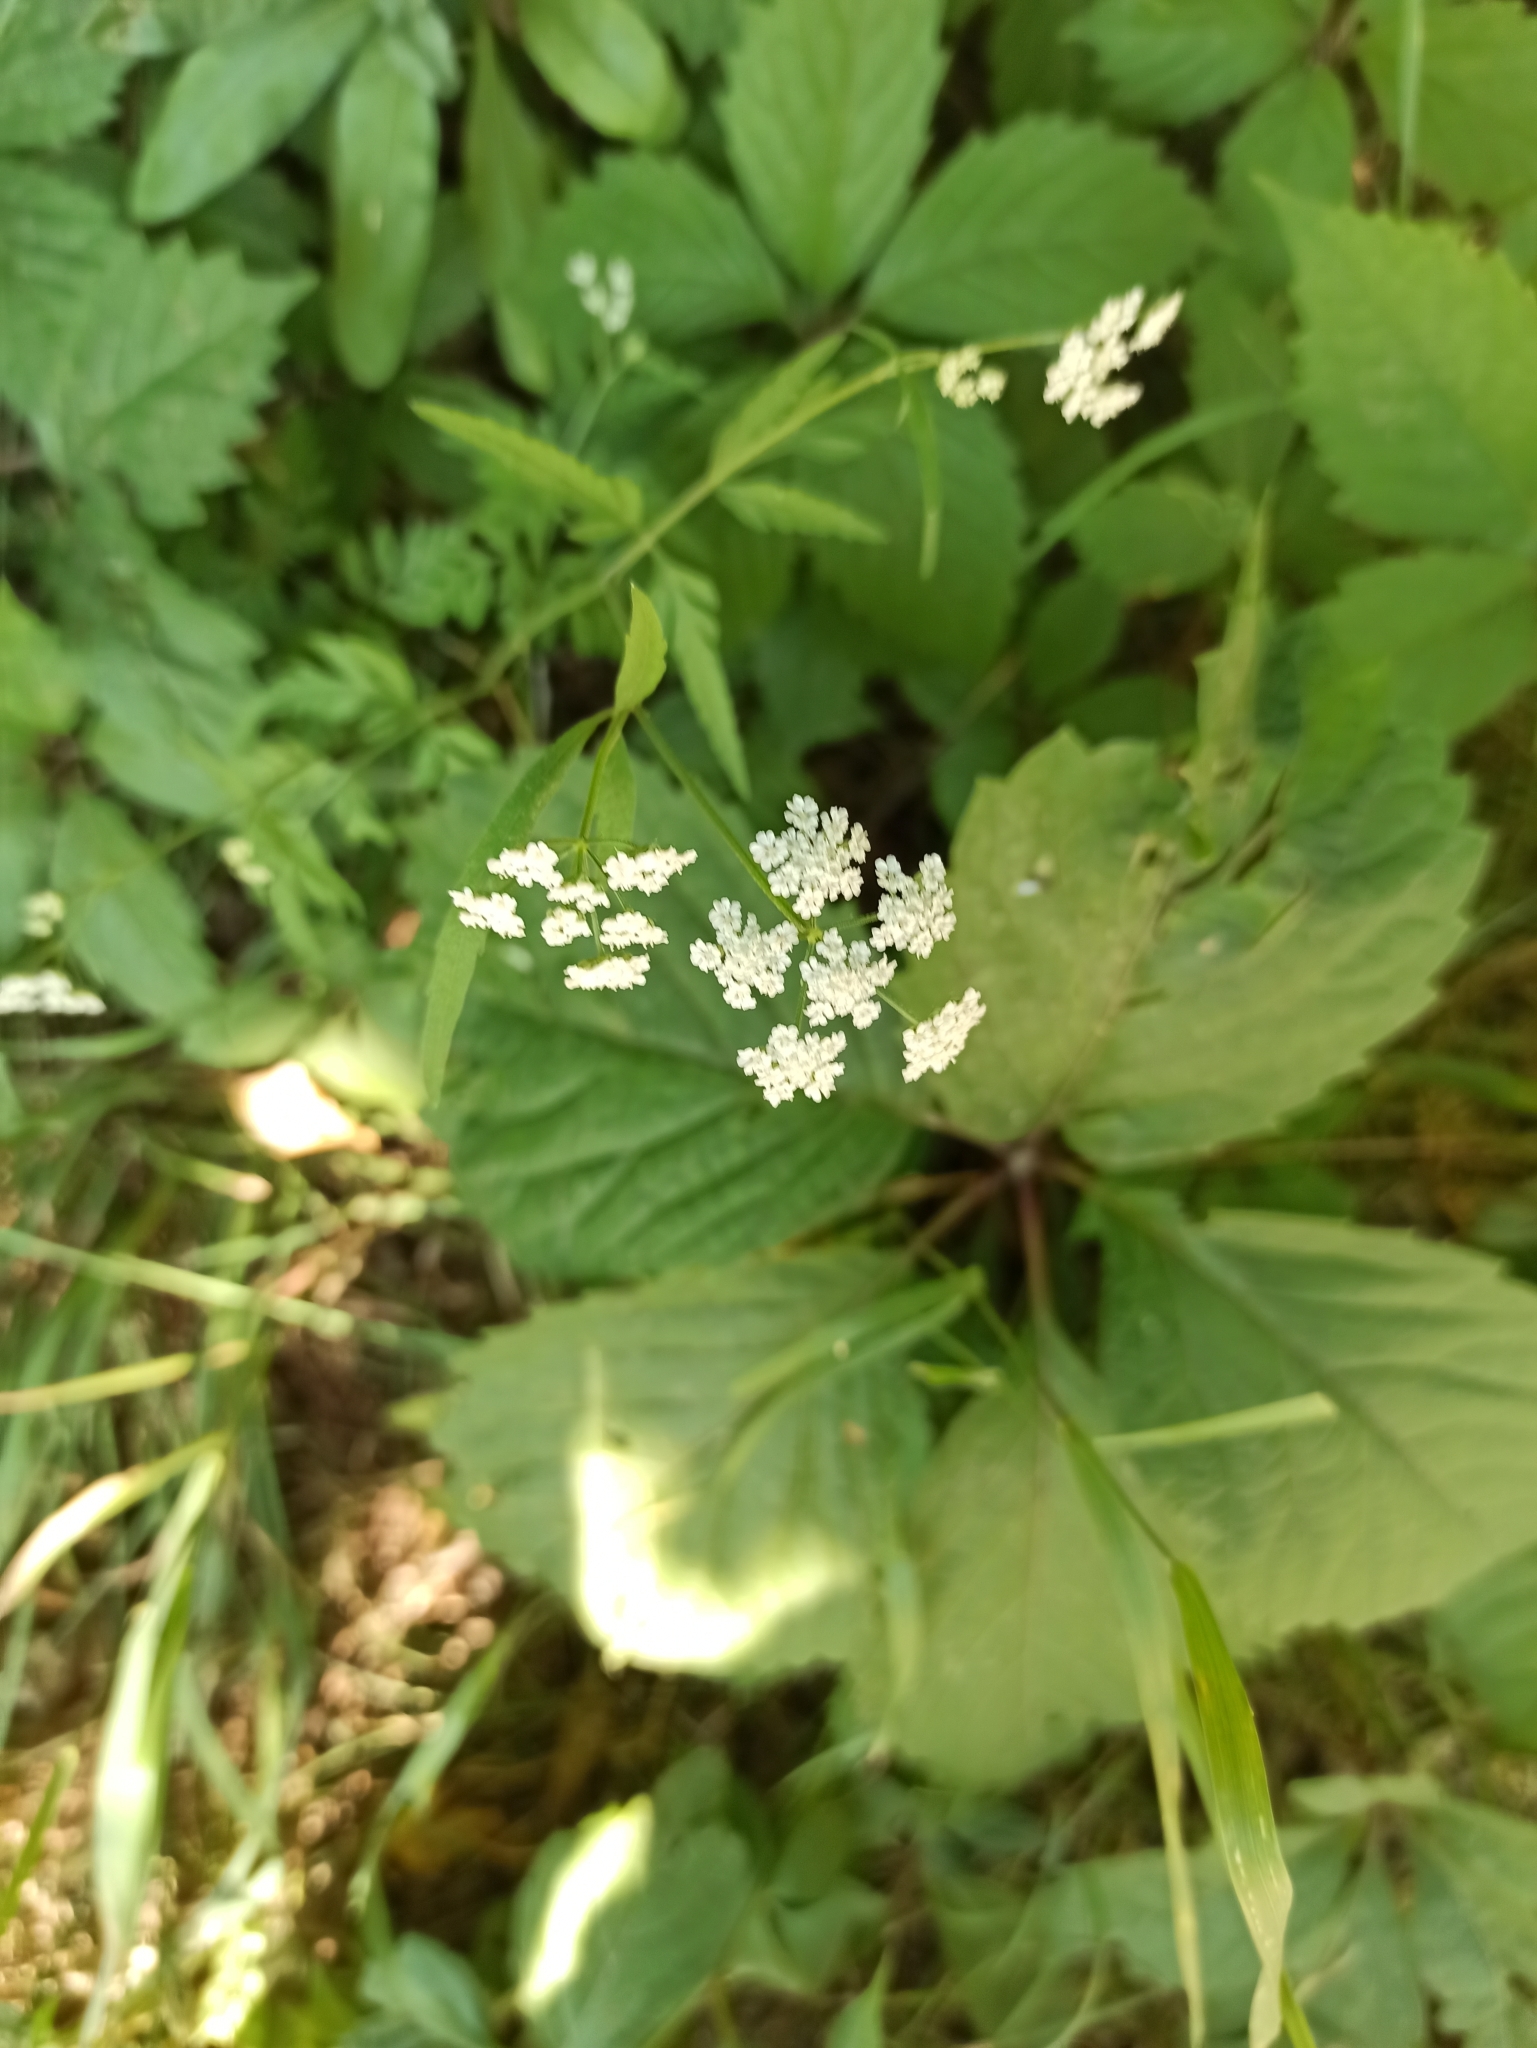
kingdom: Plantae
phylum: Tracheophyta
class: Magnoliopsida
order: Apiales
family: Apiaceae
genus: Torilis
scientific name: Torilis japonica
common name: Upright hedge-parsley
